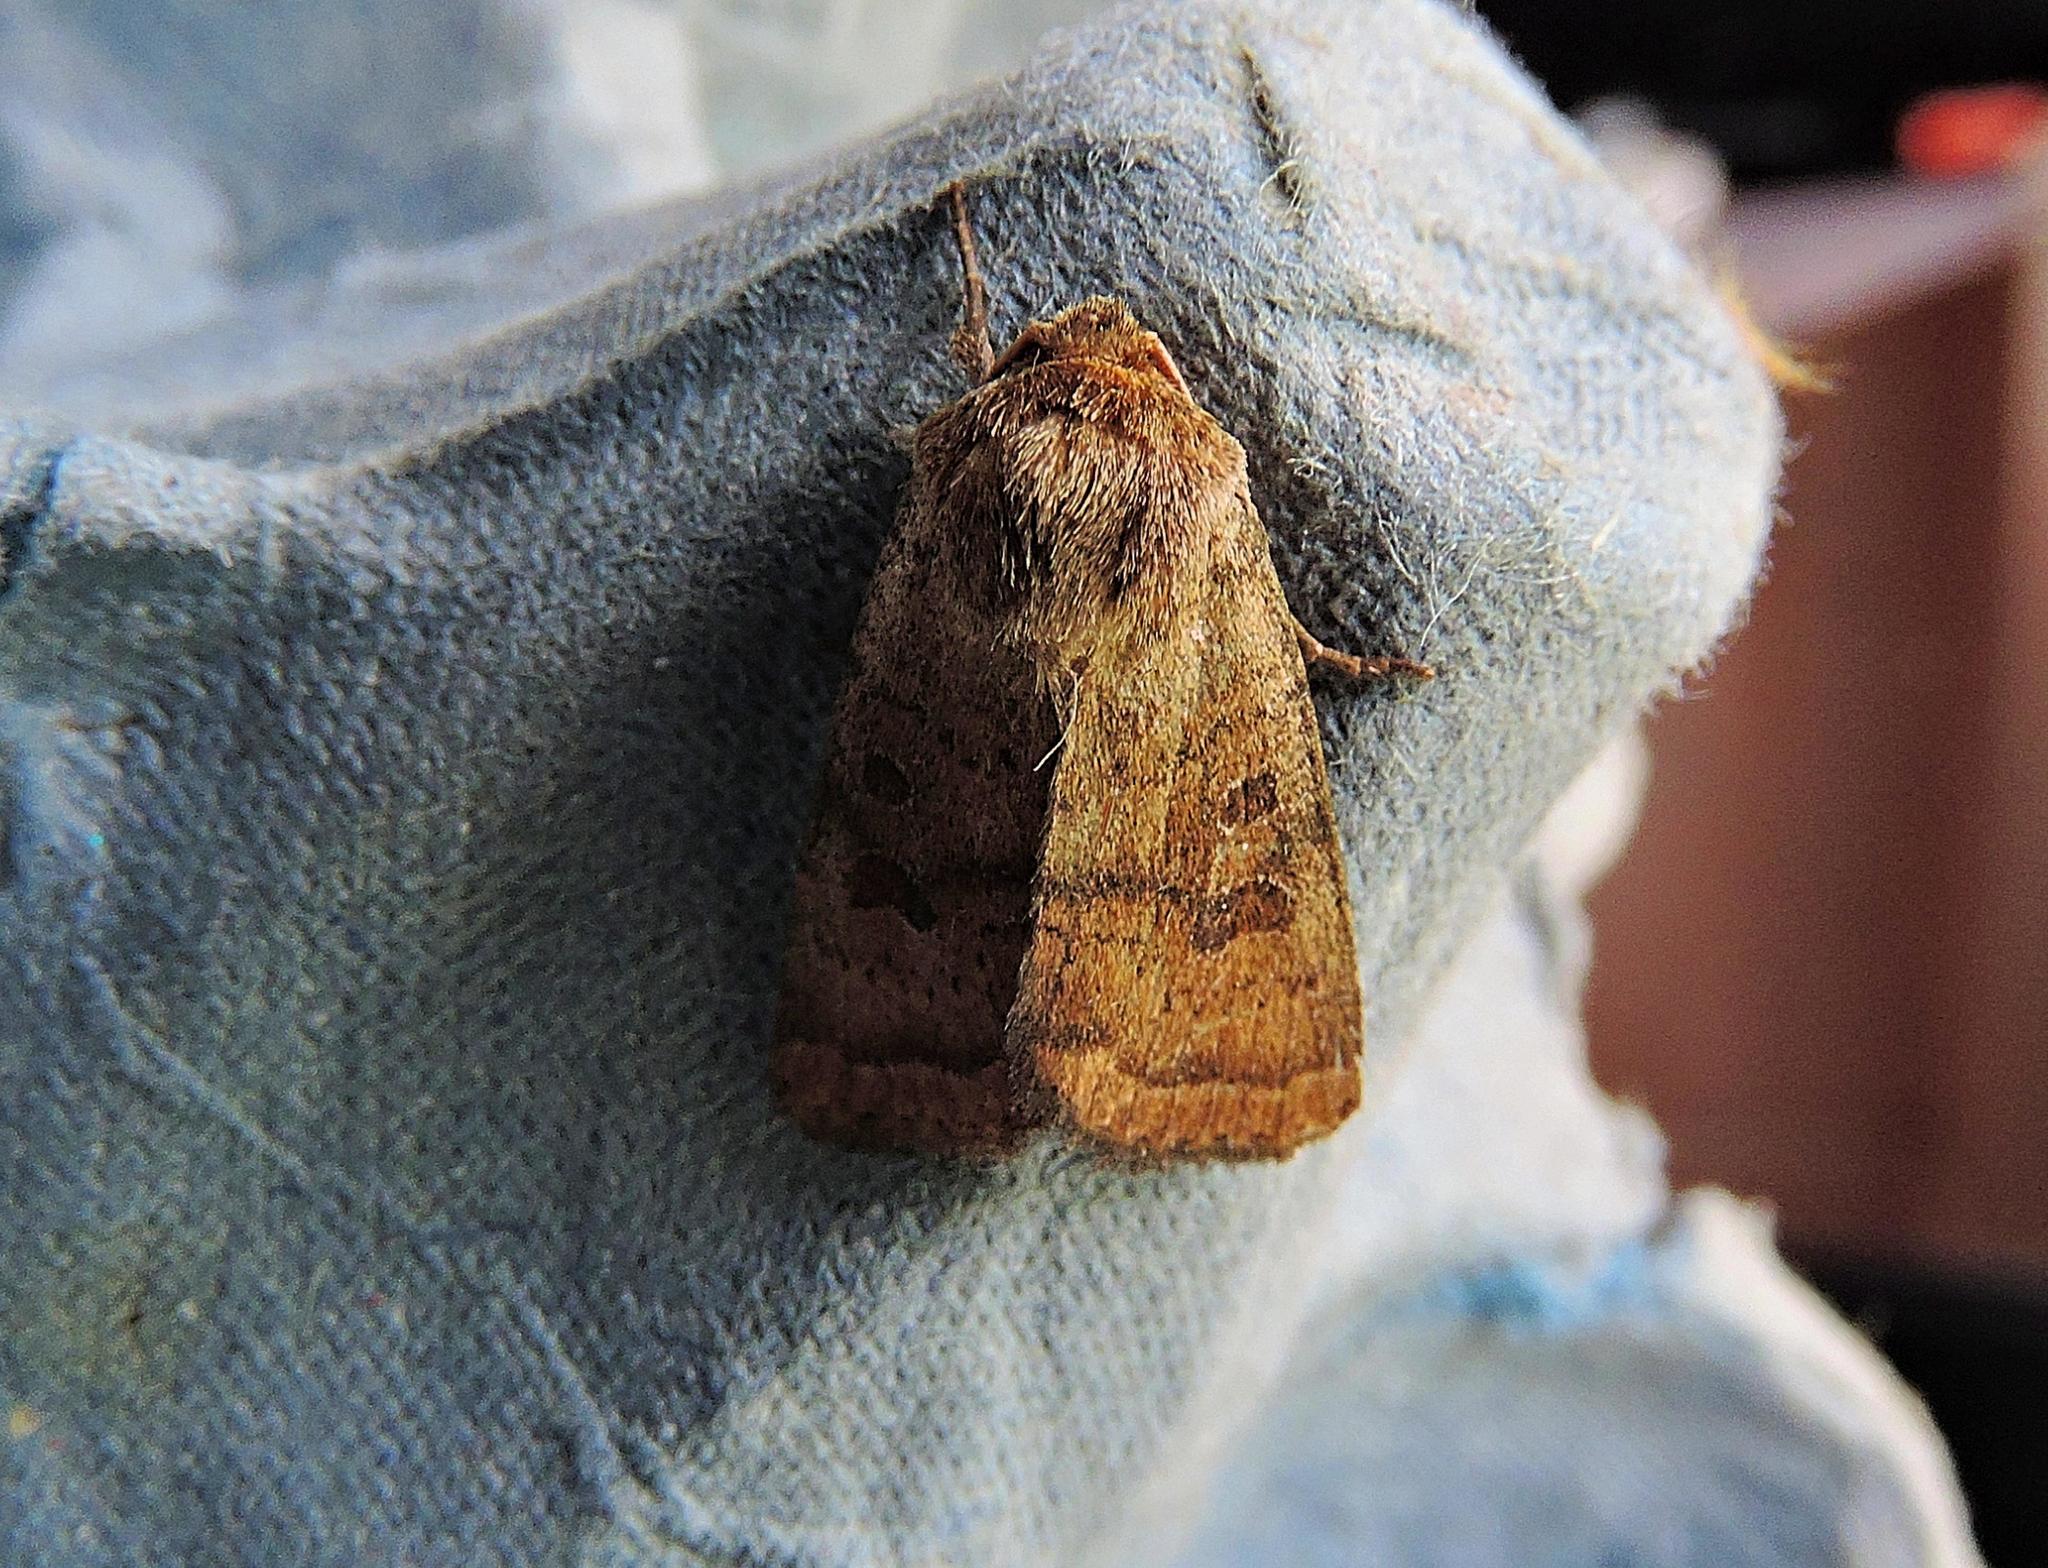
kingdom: Animalia
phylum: Arthropoda
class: Insecta
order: Lepidoptera
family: Noctuidae
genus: Hoplodrina
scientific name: Hoplodrina octogenaria
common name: Uncertain
